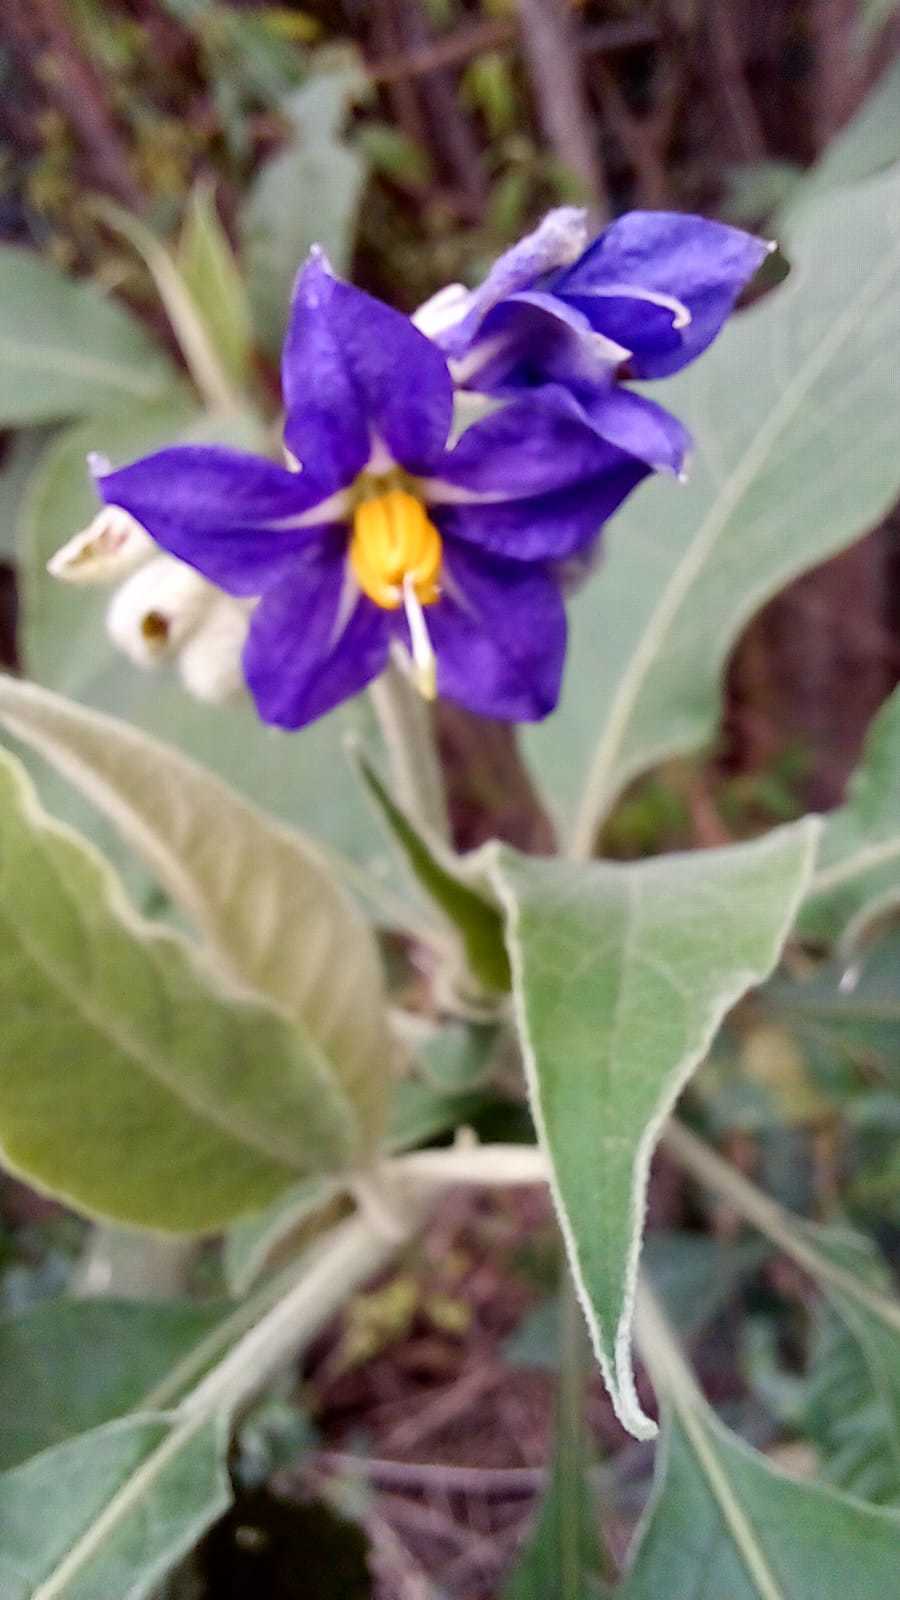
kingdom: Plantae
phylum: Tracheophyta
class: Magnoliopsida
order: Solanales
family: Solanaceae
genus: Solanum
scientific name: Solanum granulosoleprosum
